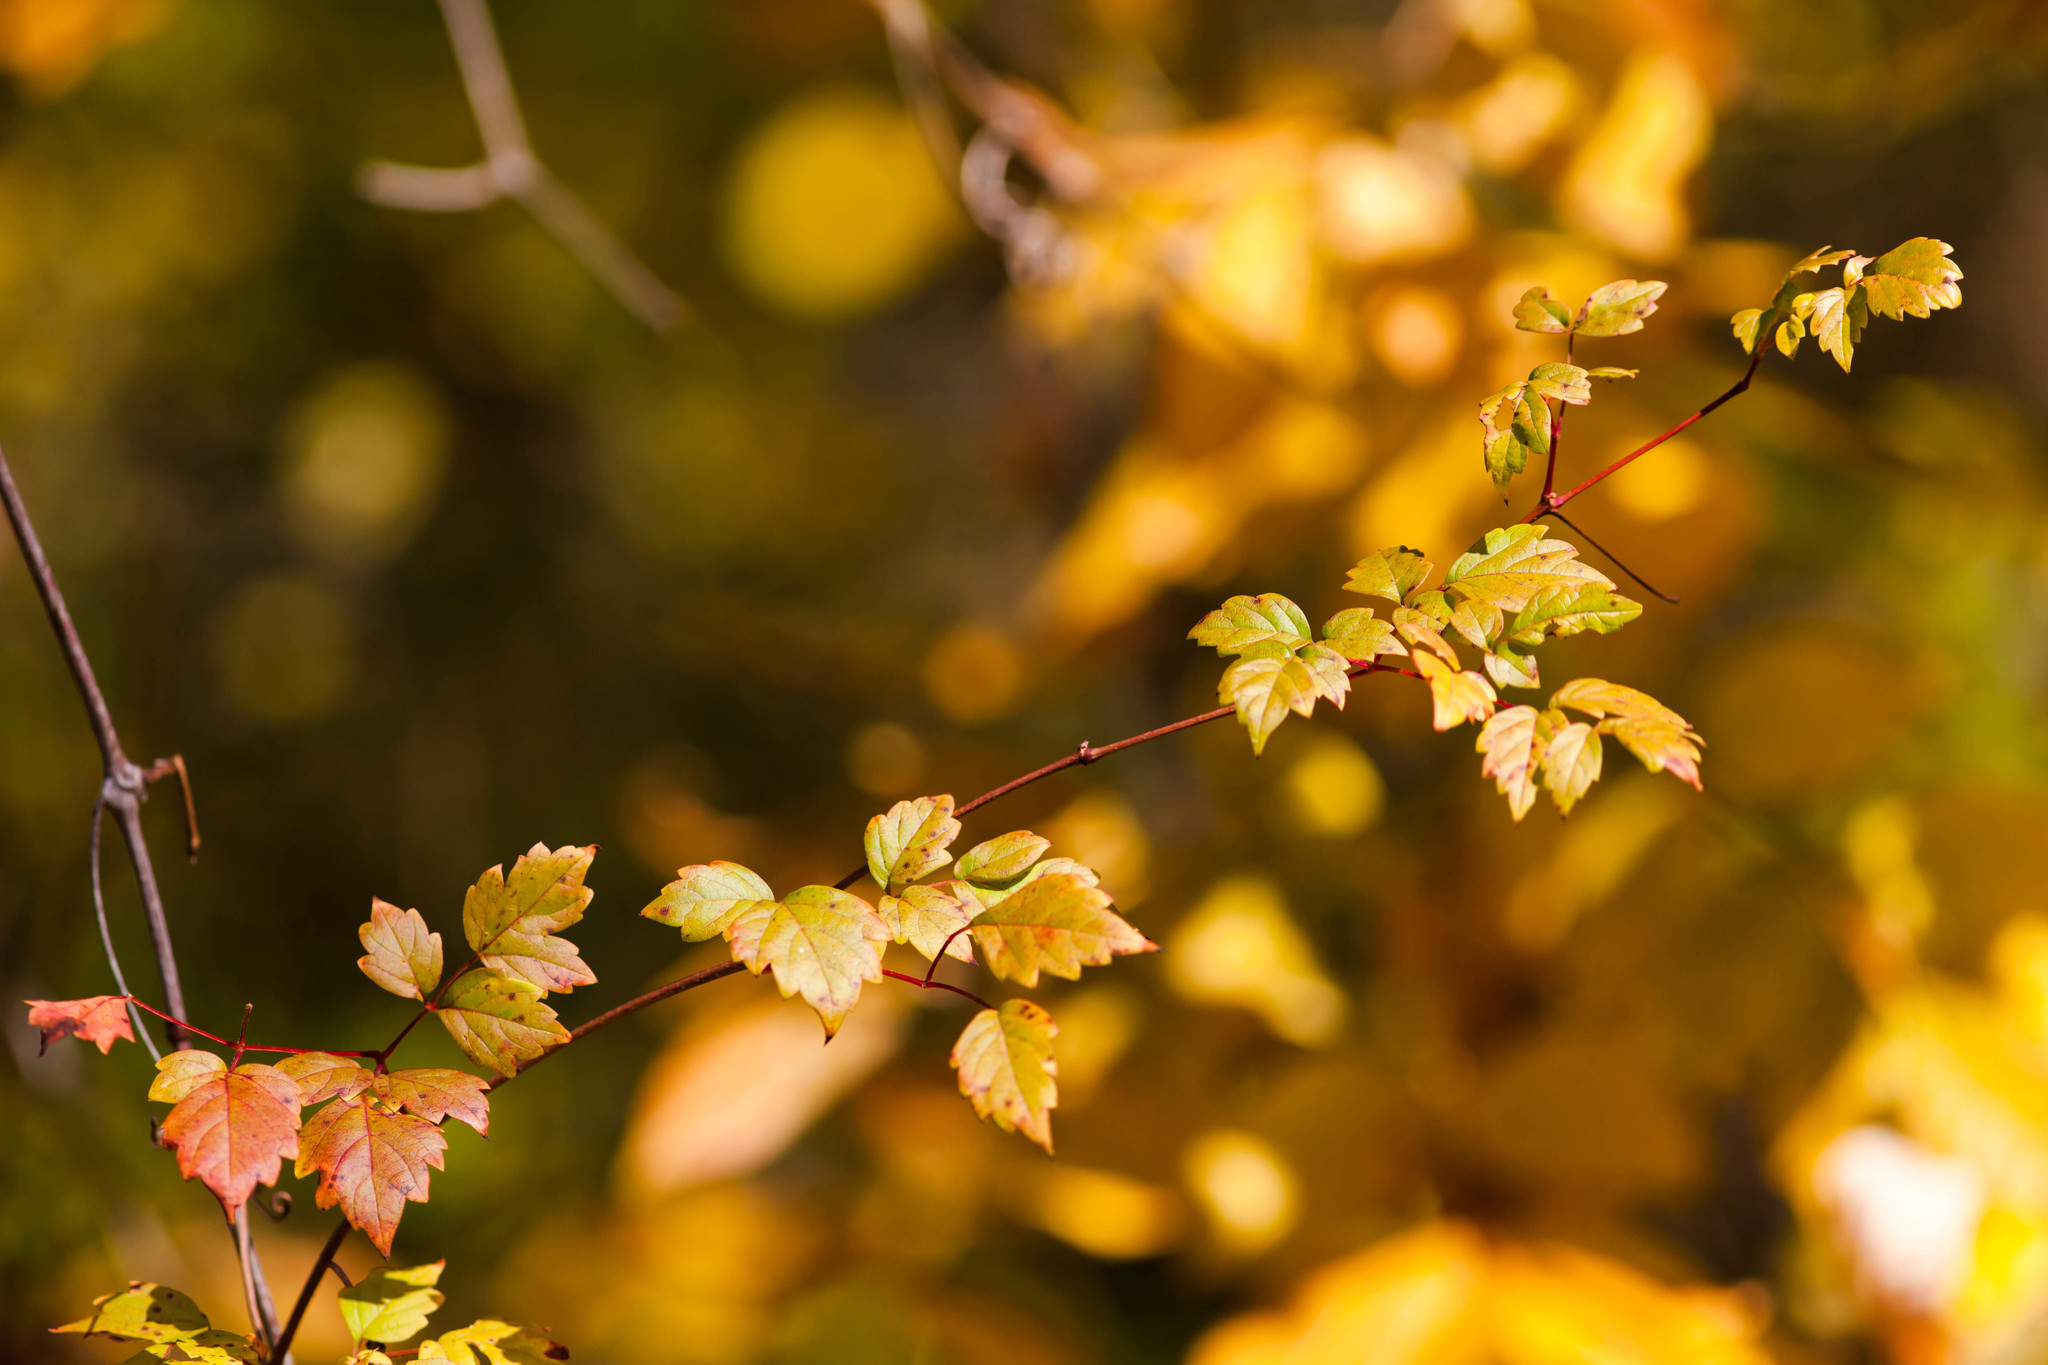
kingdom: Plantae
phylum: Tracheophyta
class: Magnoliopsida
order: Vitales
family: Vitaceae
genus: Nekemias
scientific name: Nekemias arborea
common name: Peppervine
